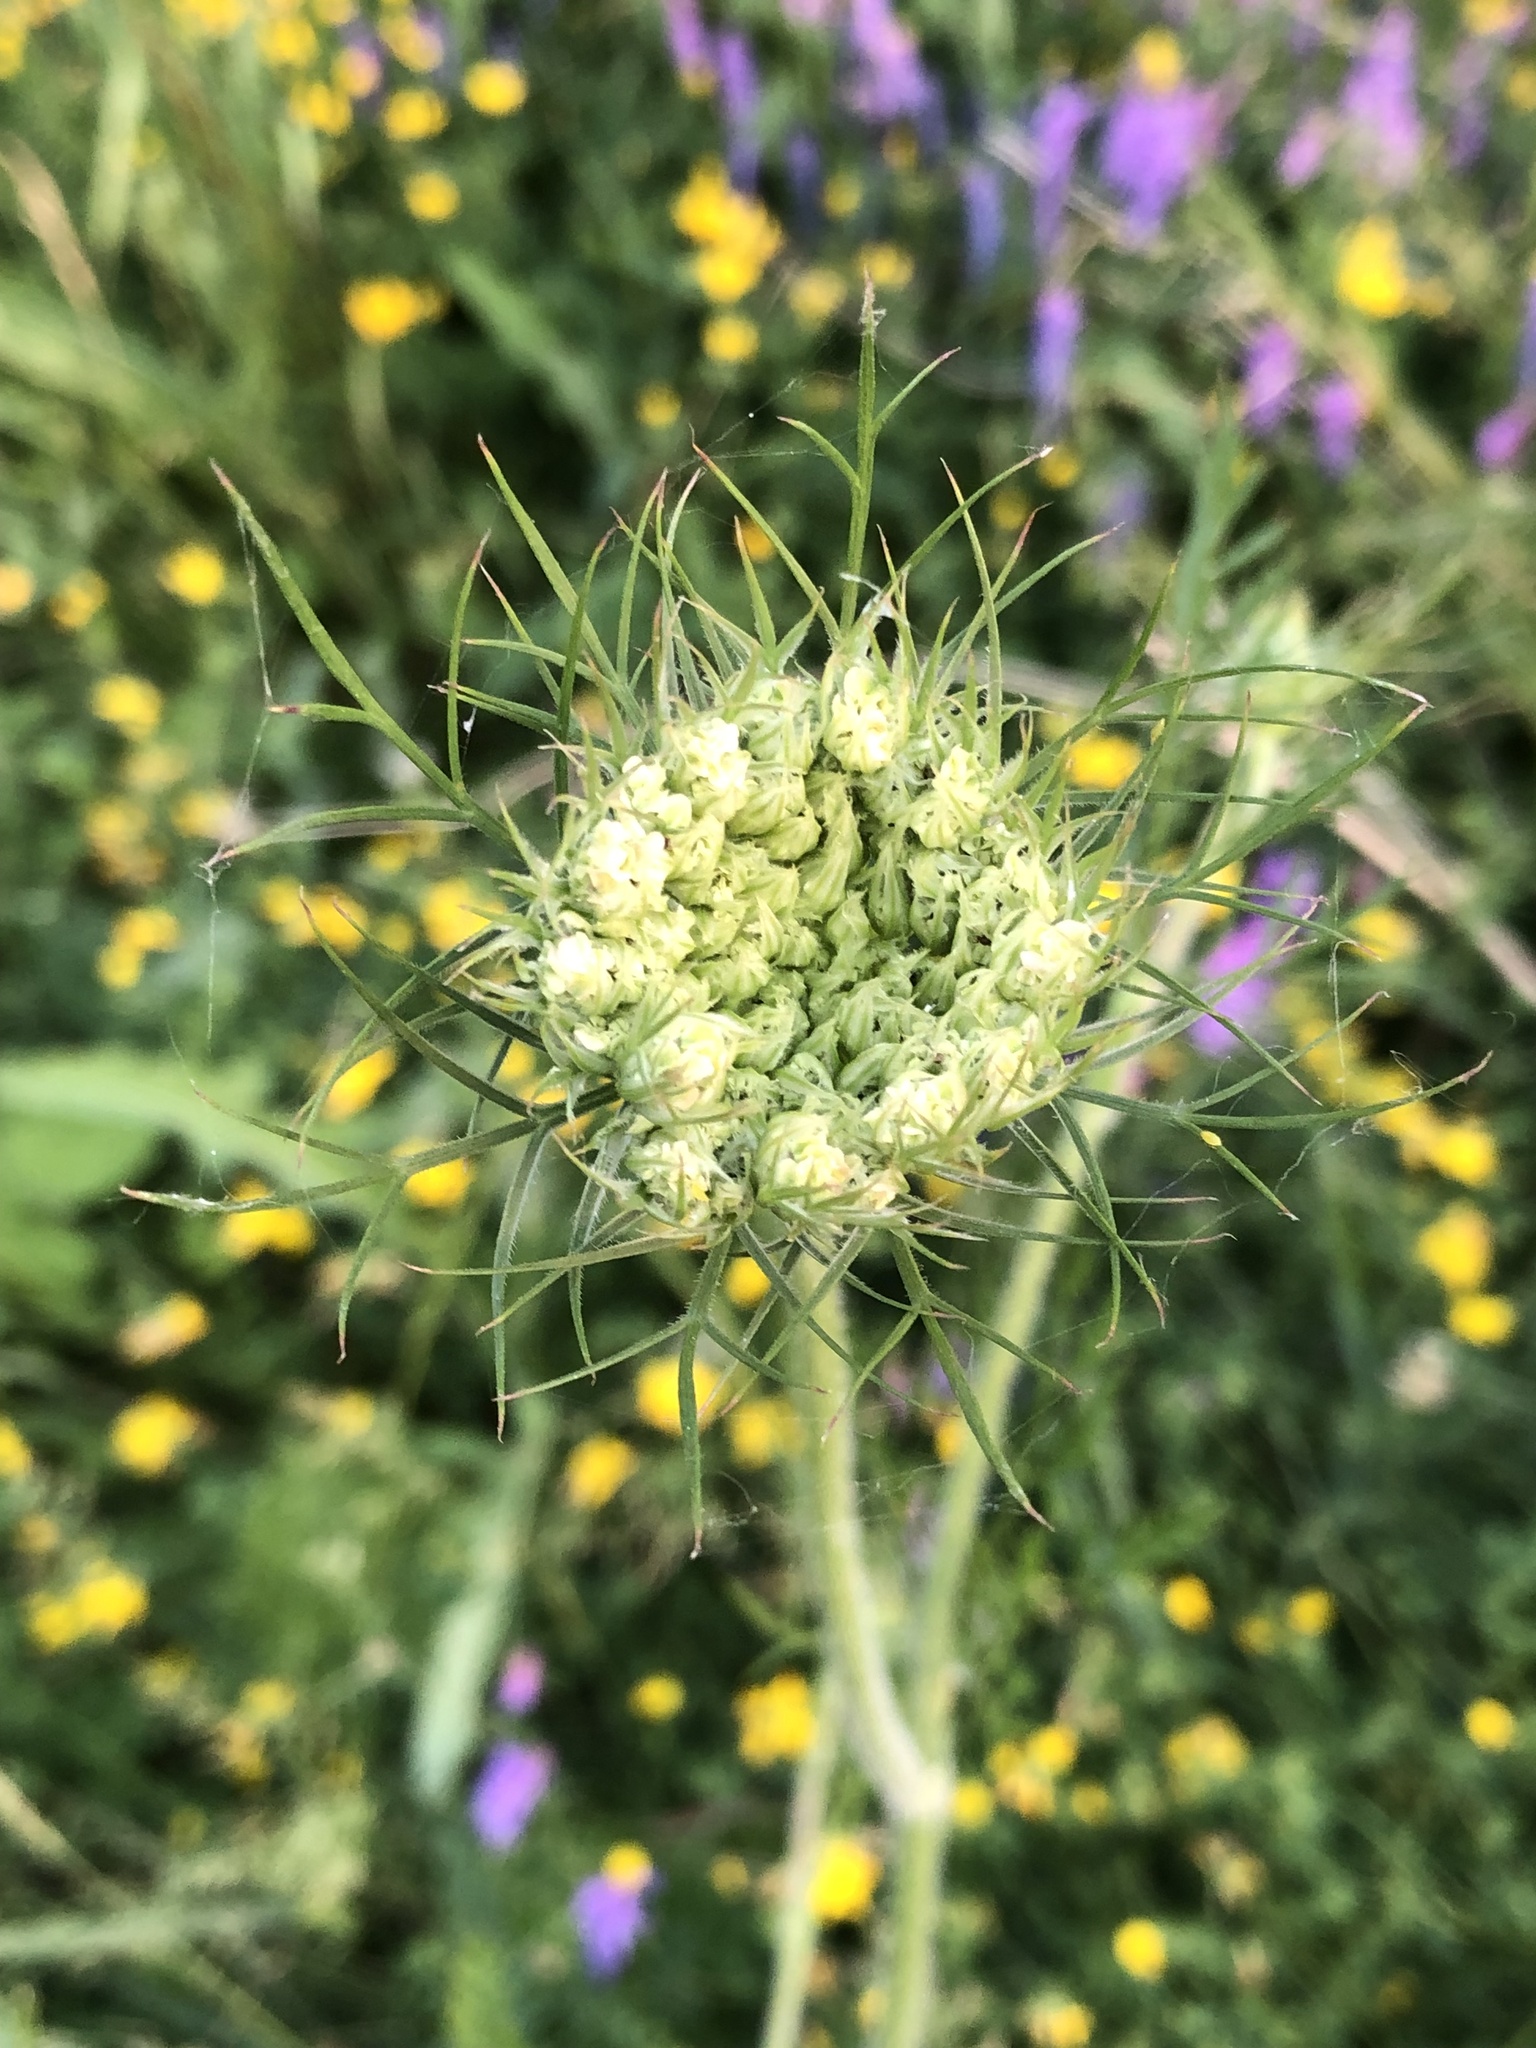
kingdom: Plantae
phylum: Tracheophyta
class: Magnoliopsida
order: Apiales
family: Apiaceae
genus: Daucus
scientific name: Daucus carota
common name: Wild carrot
